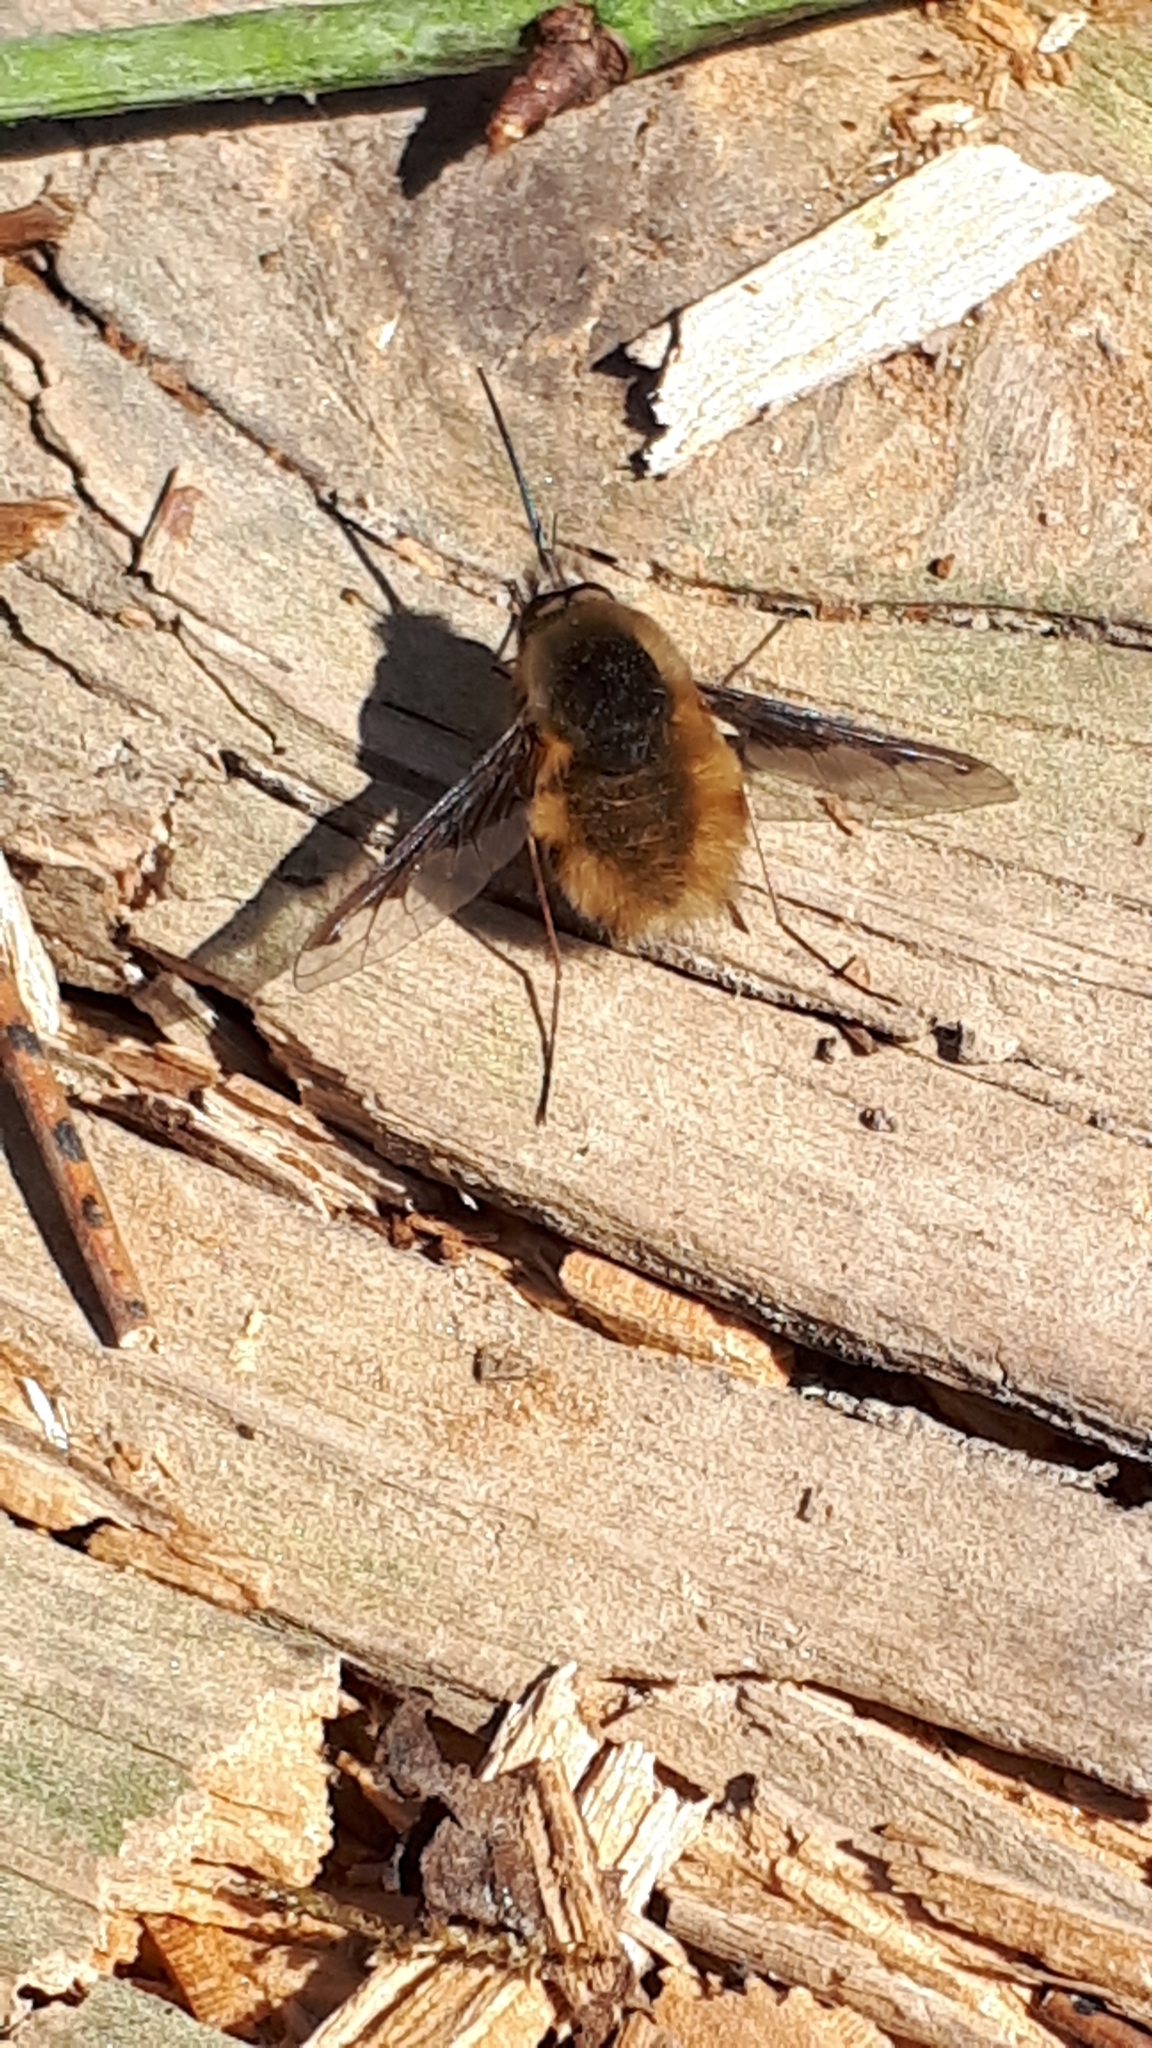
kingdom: Animalia
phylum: Arthropoda
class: Insecta
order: Diptera
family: Bombyliidae
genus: Bombylius
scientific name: Bombylius major
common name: Bee fly
